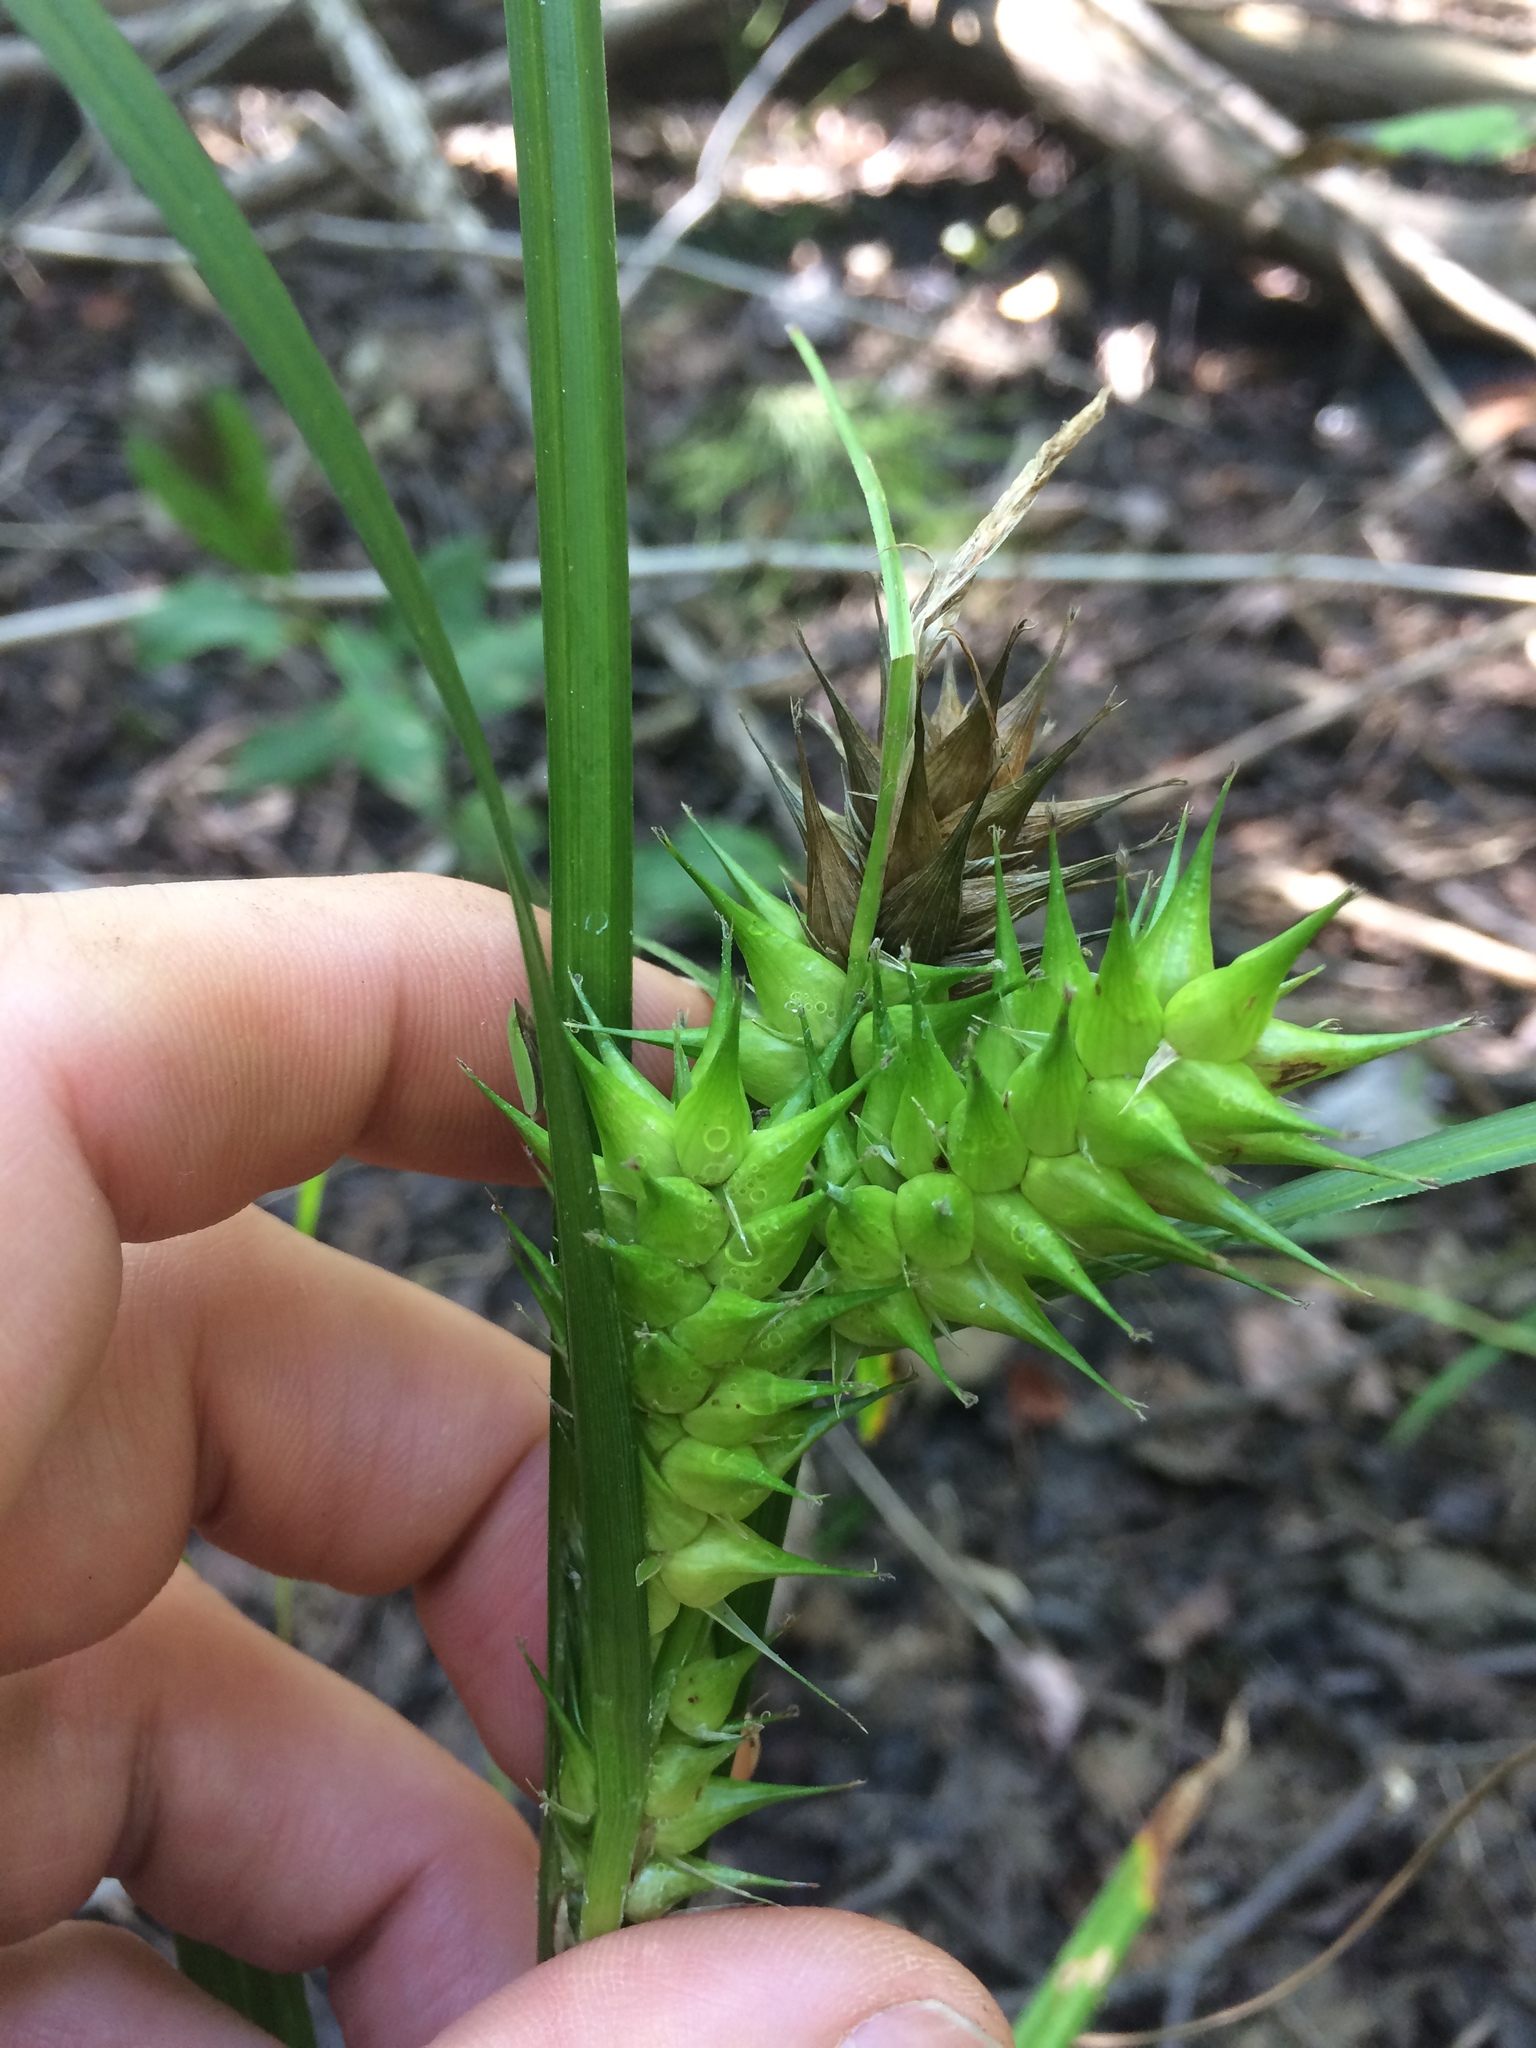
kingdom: Plantae
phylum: Tracheophyta
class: Liliopsida
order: Poales
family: Cyperaceae
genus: Carex
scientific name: Carex lupulina
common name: Hop sedge
